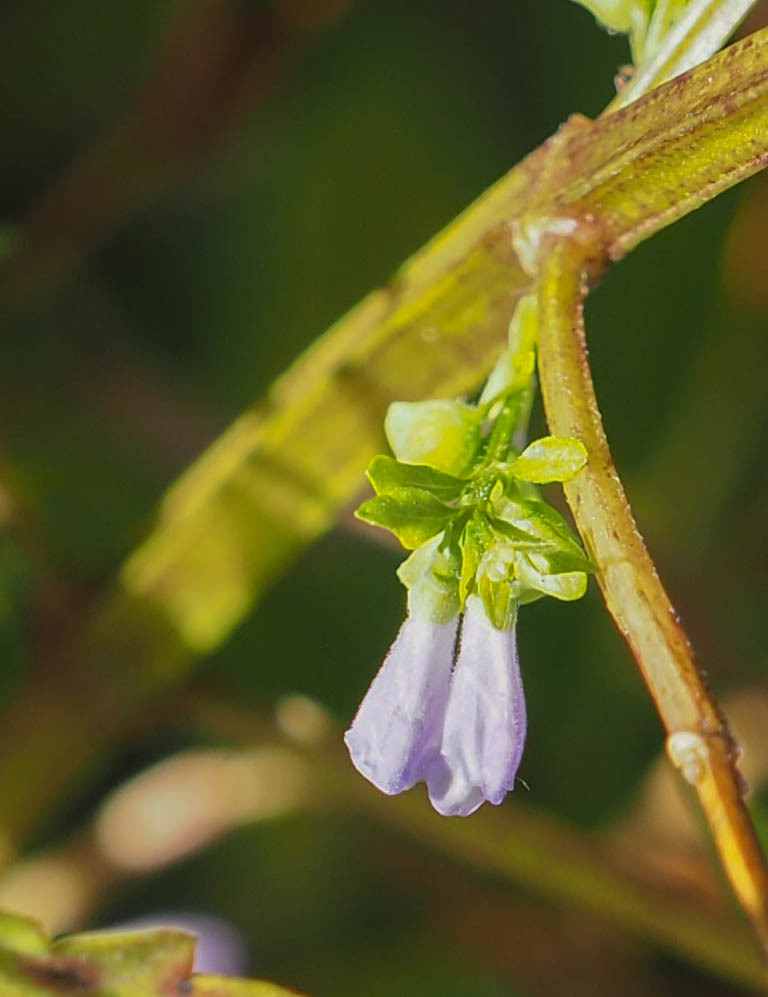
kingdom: Plantae
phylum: Tracheophyta
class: Magnoliopsida
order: Lamiales
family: Lamiaceae
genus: Scutellaria
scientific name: Scutellaria lateriflora
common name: Blue skullcap
